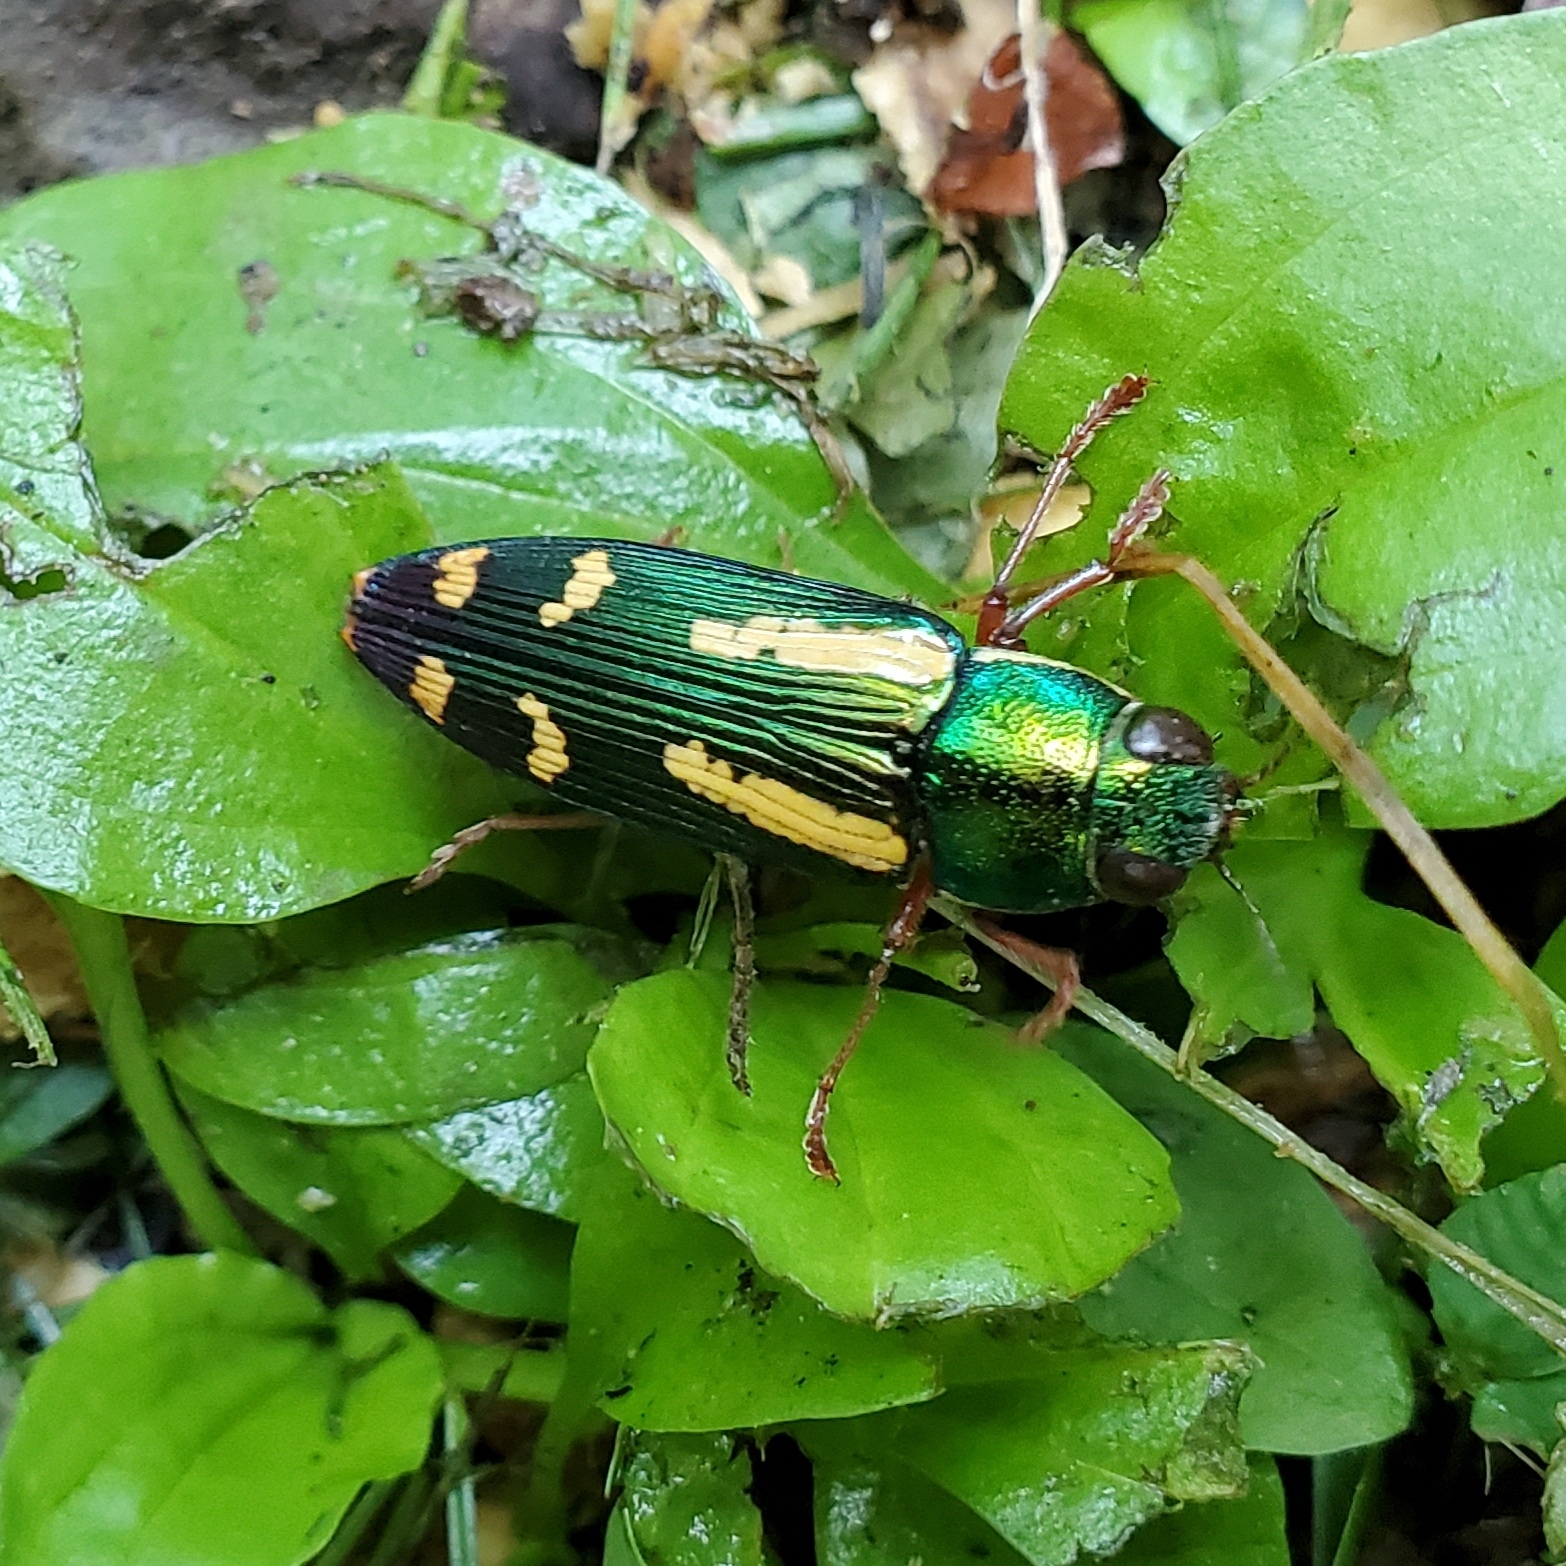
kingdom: Animalia
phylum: Arthropoda
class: Insecta
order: Coleoptera
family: Buprestidae
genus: Buprestis
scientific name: Buprestis rufipes
